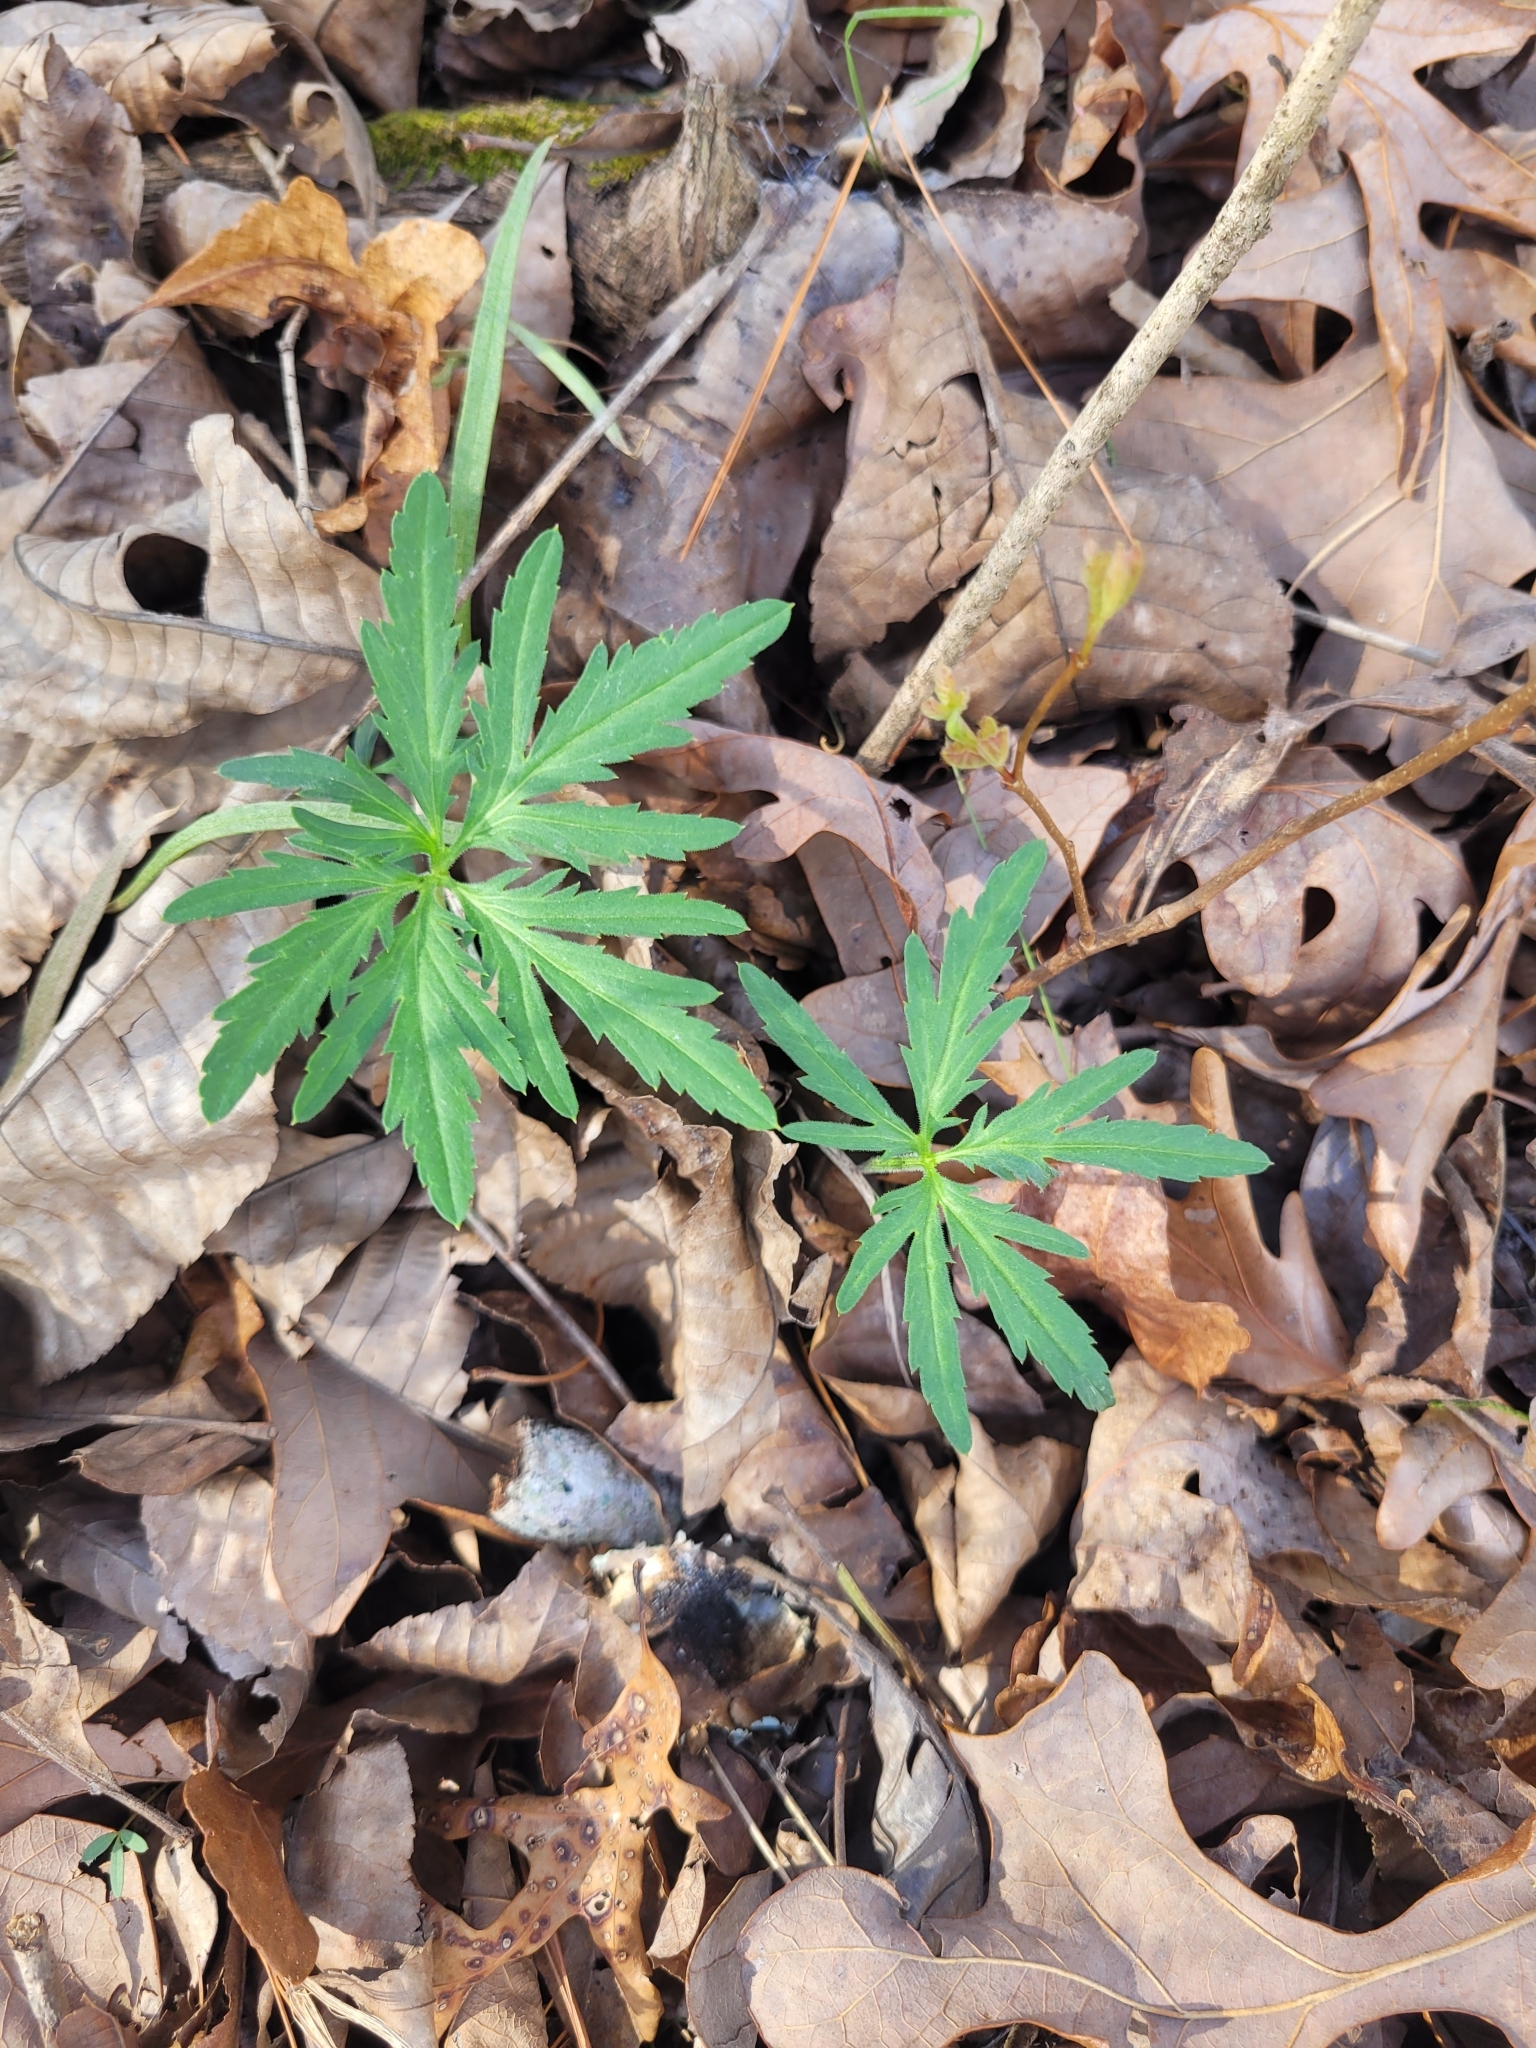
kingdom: Plantae
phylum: Tracheophyta
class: Magnoliopsida
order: Brassicales
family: Brassicaceae
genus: Cardamine
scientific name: Cardamine concatenata
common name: Cut-leaf toothcup
